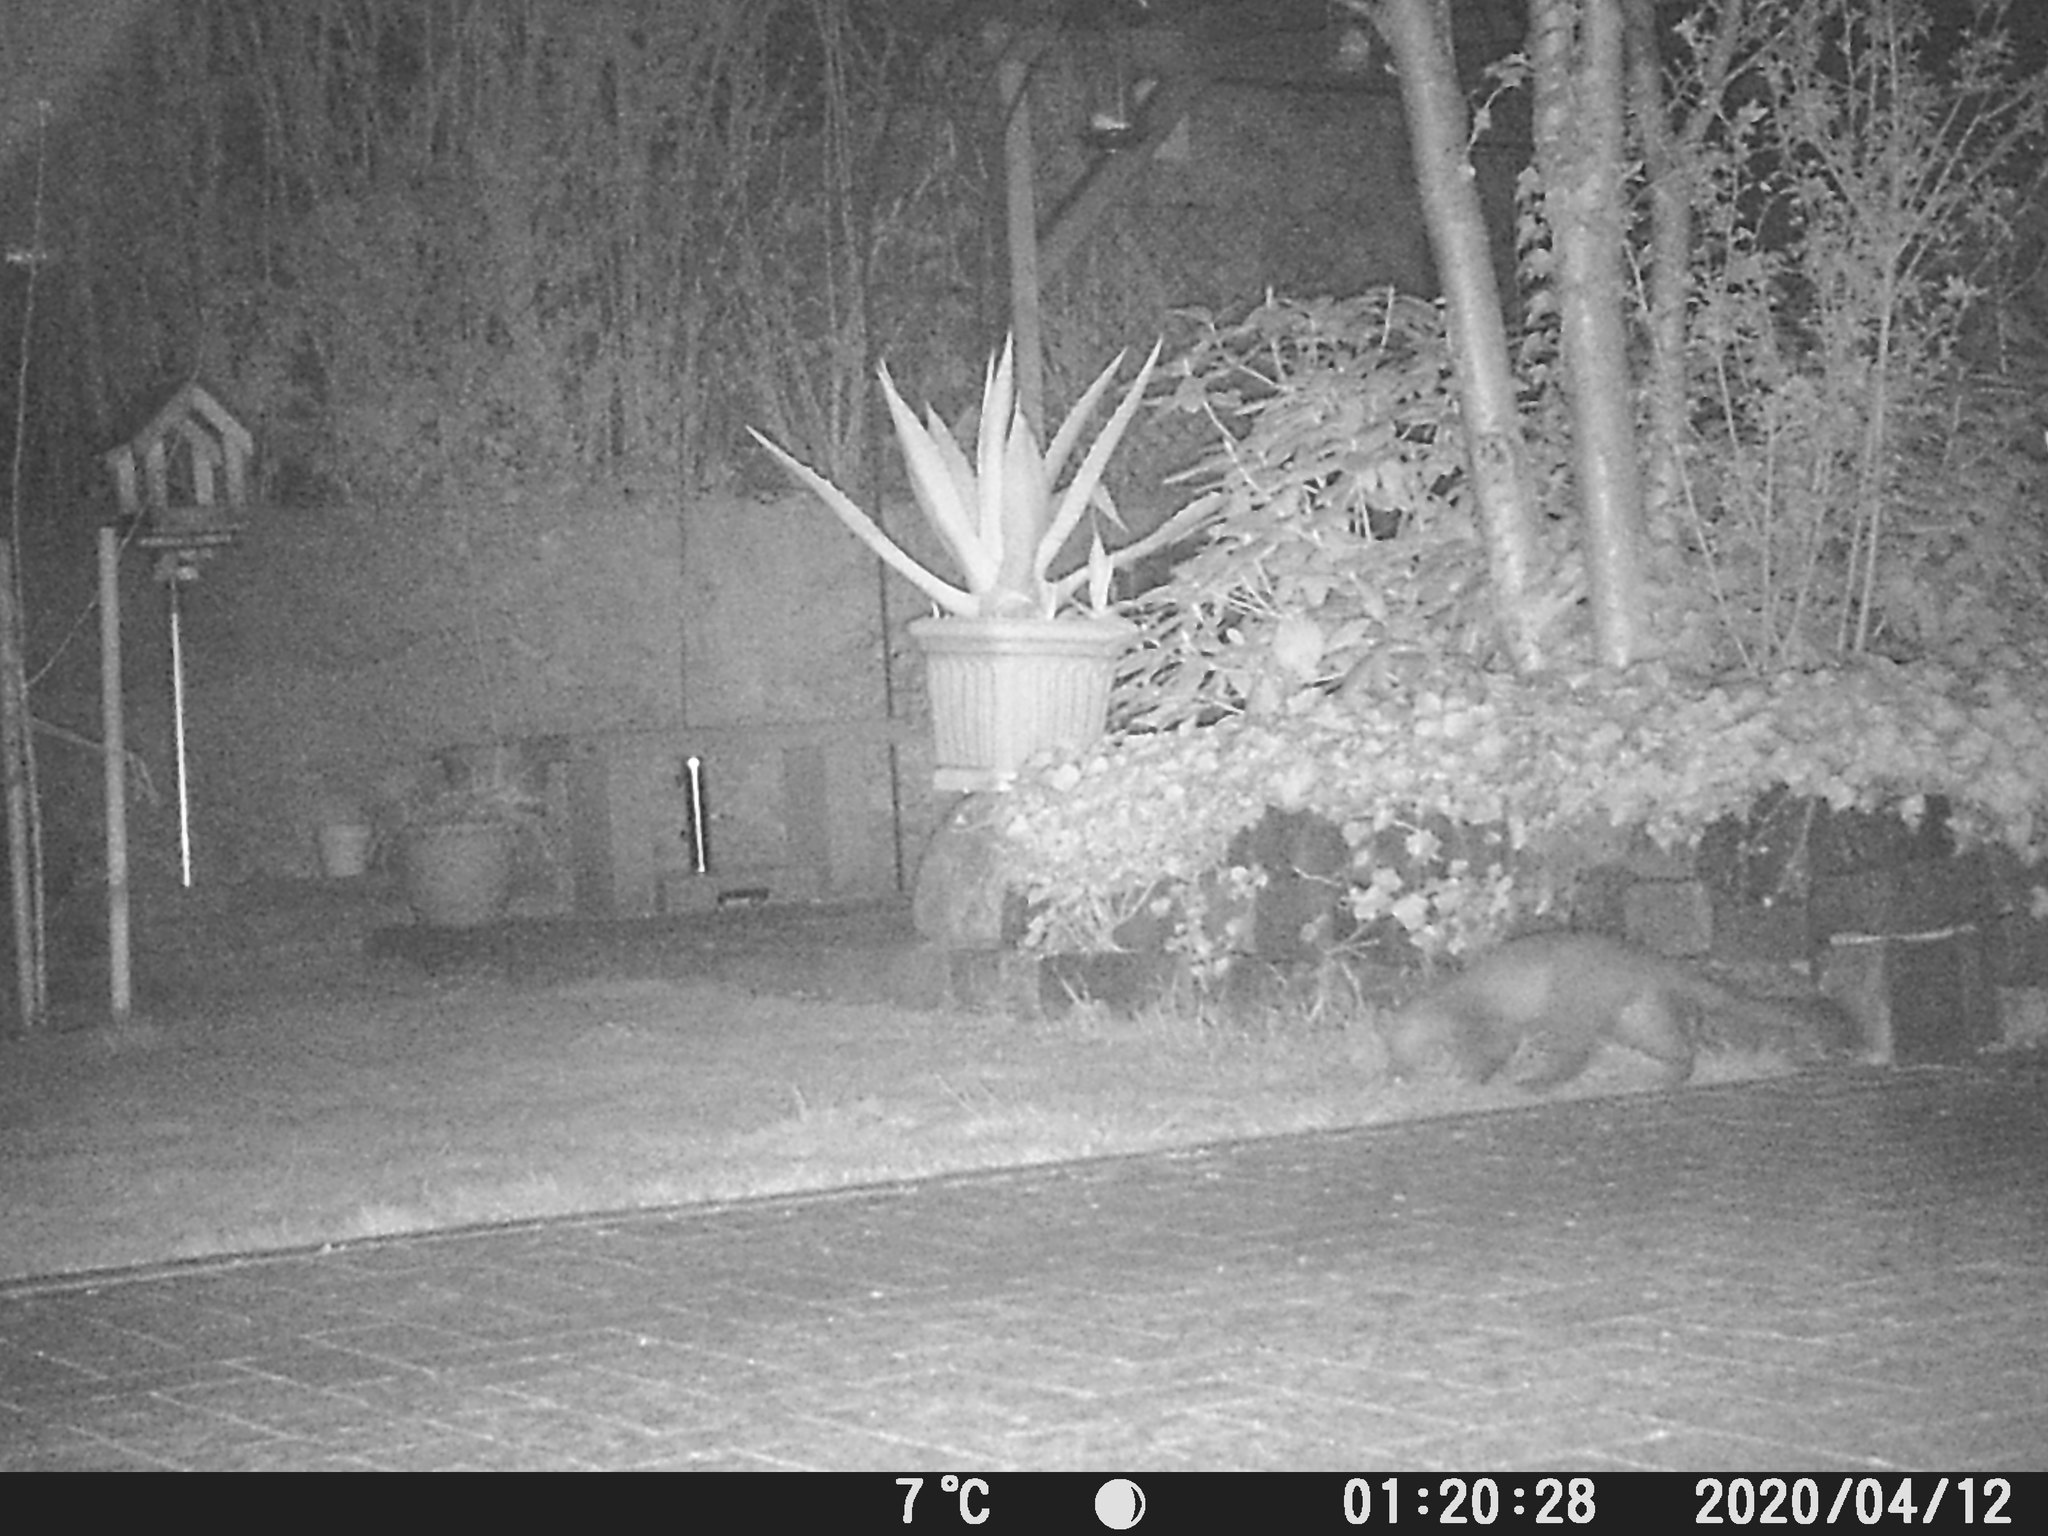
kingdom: Animalia
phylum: Chordata
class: Mammalia
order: Carnivora
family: Mustelidae
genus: Martes
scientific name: Martes foina
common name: Beech marten
